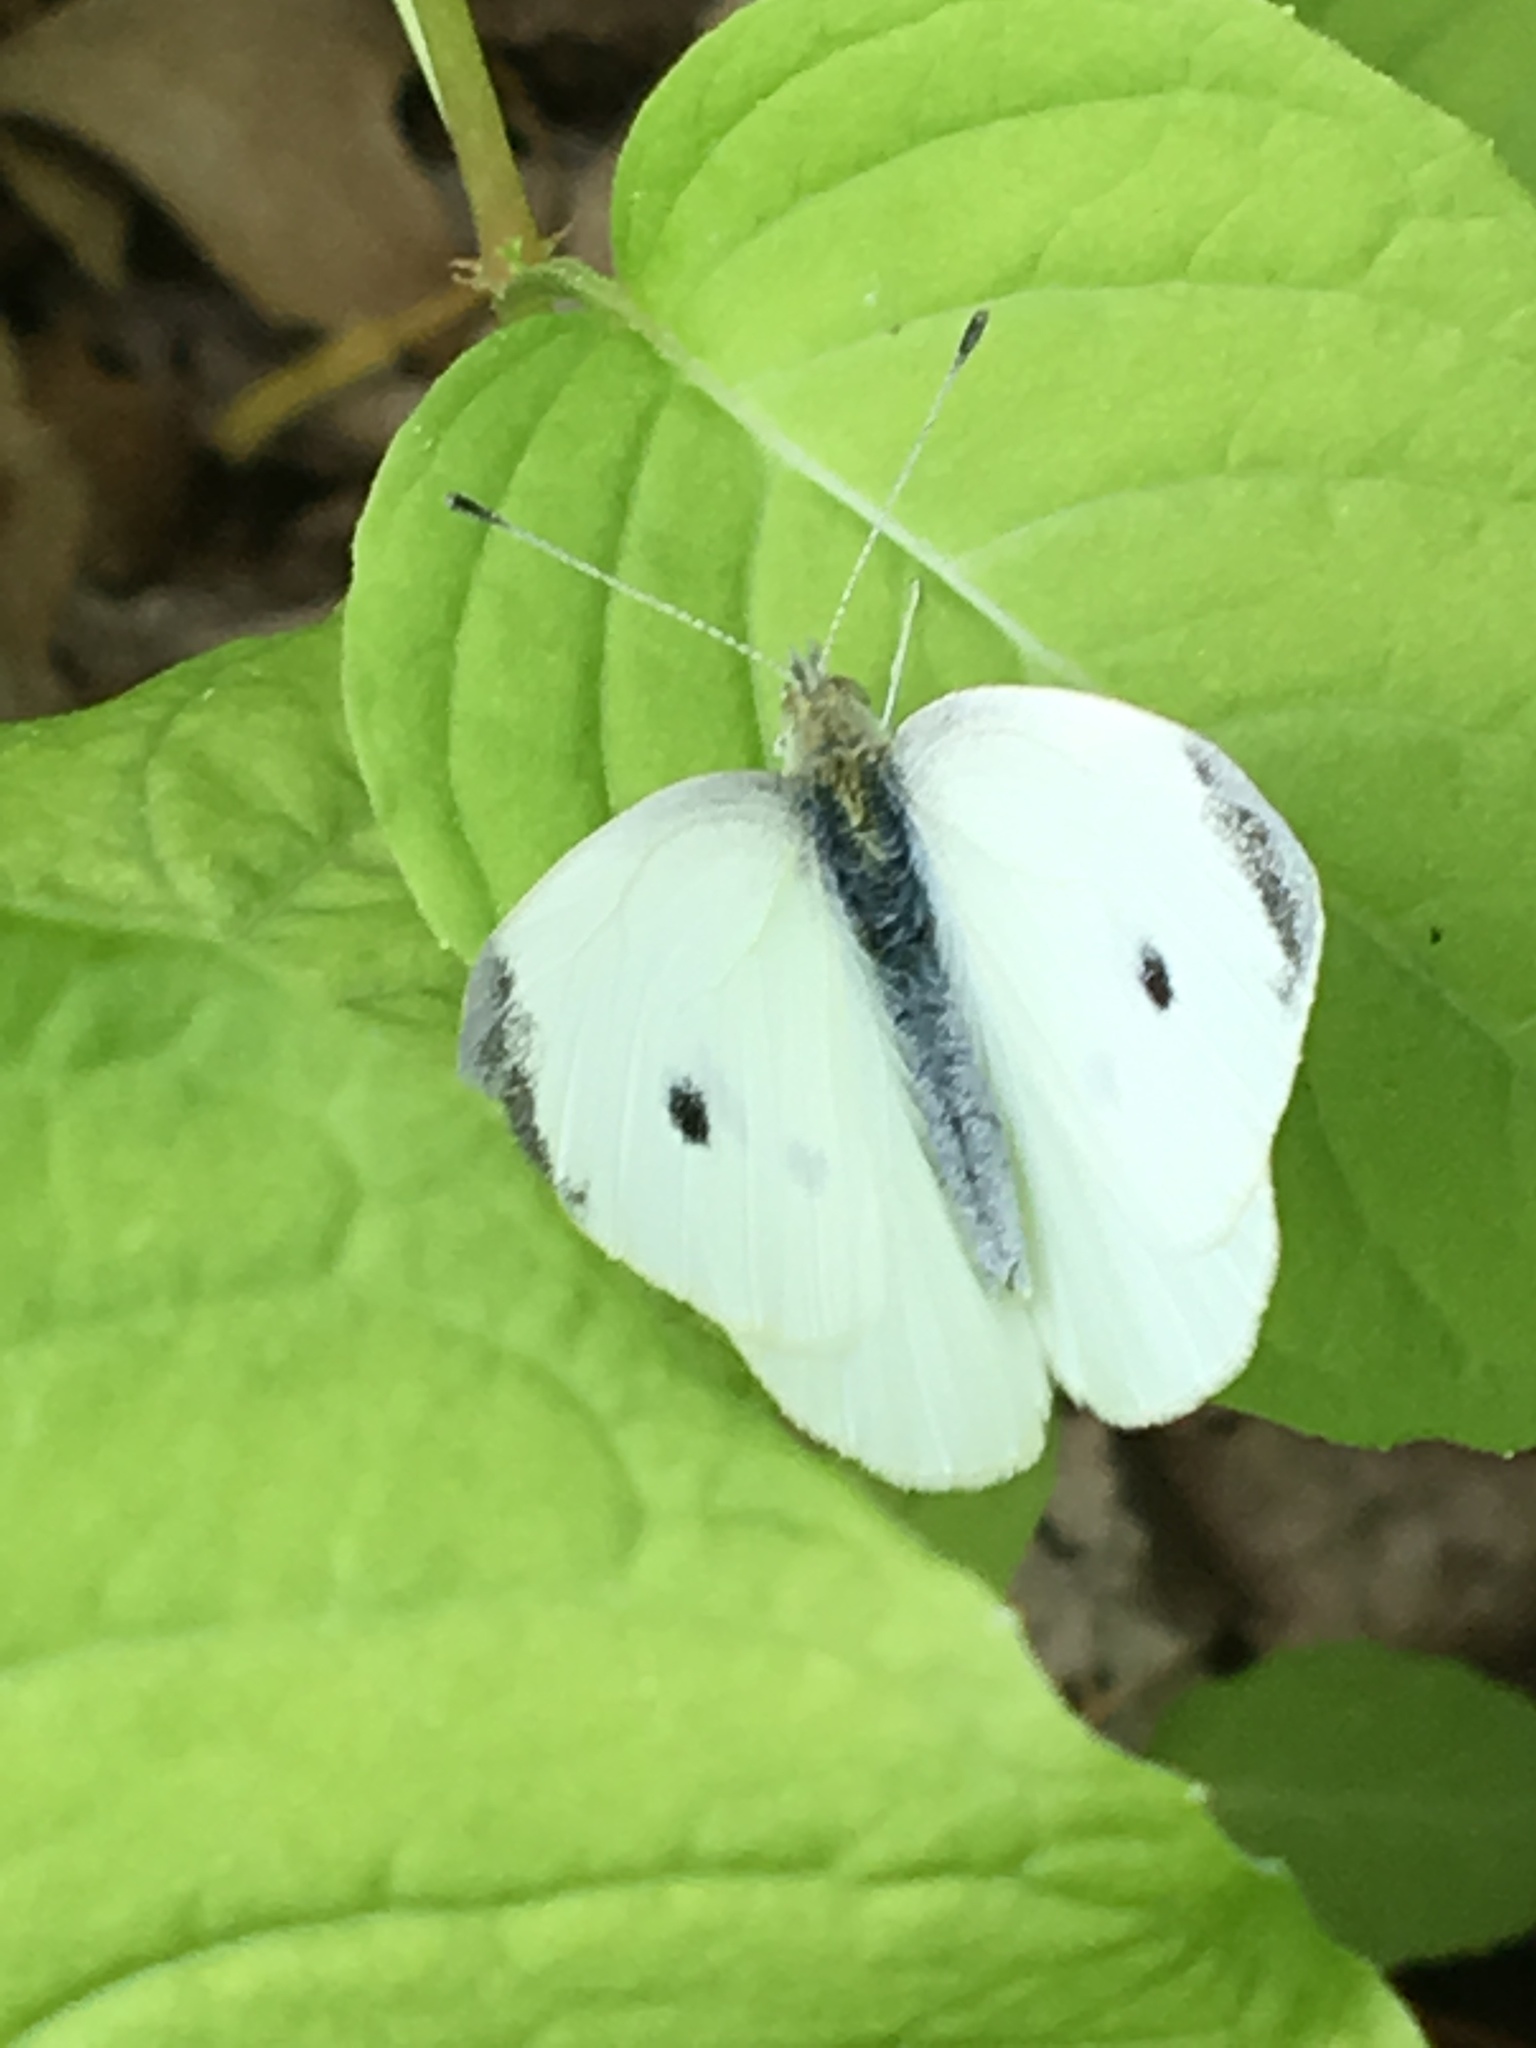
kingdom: Animalia
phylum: Arthropoda
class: Insecta
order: Lepidoptera
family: Pieridae
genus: Pieris
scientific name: Pieris rapae
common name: Small white
